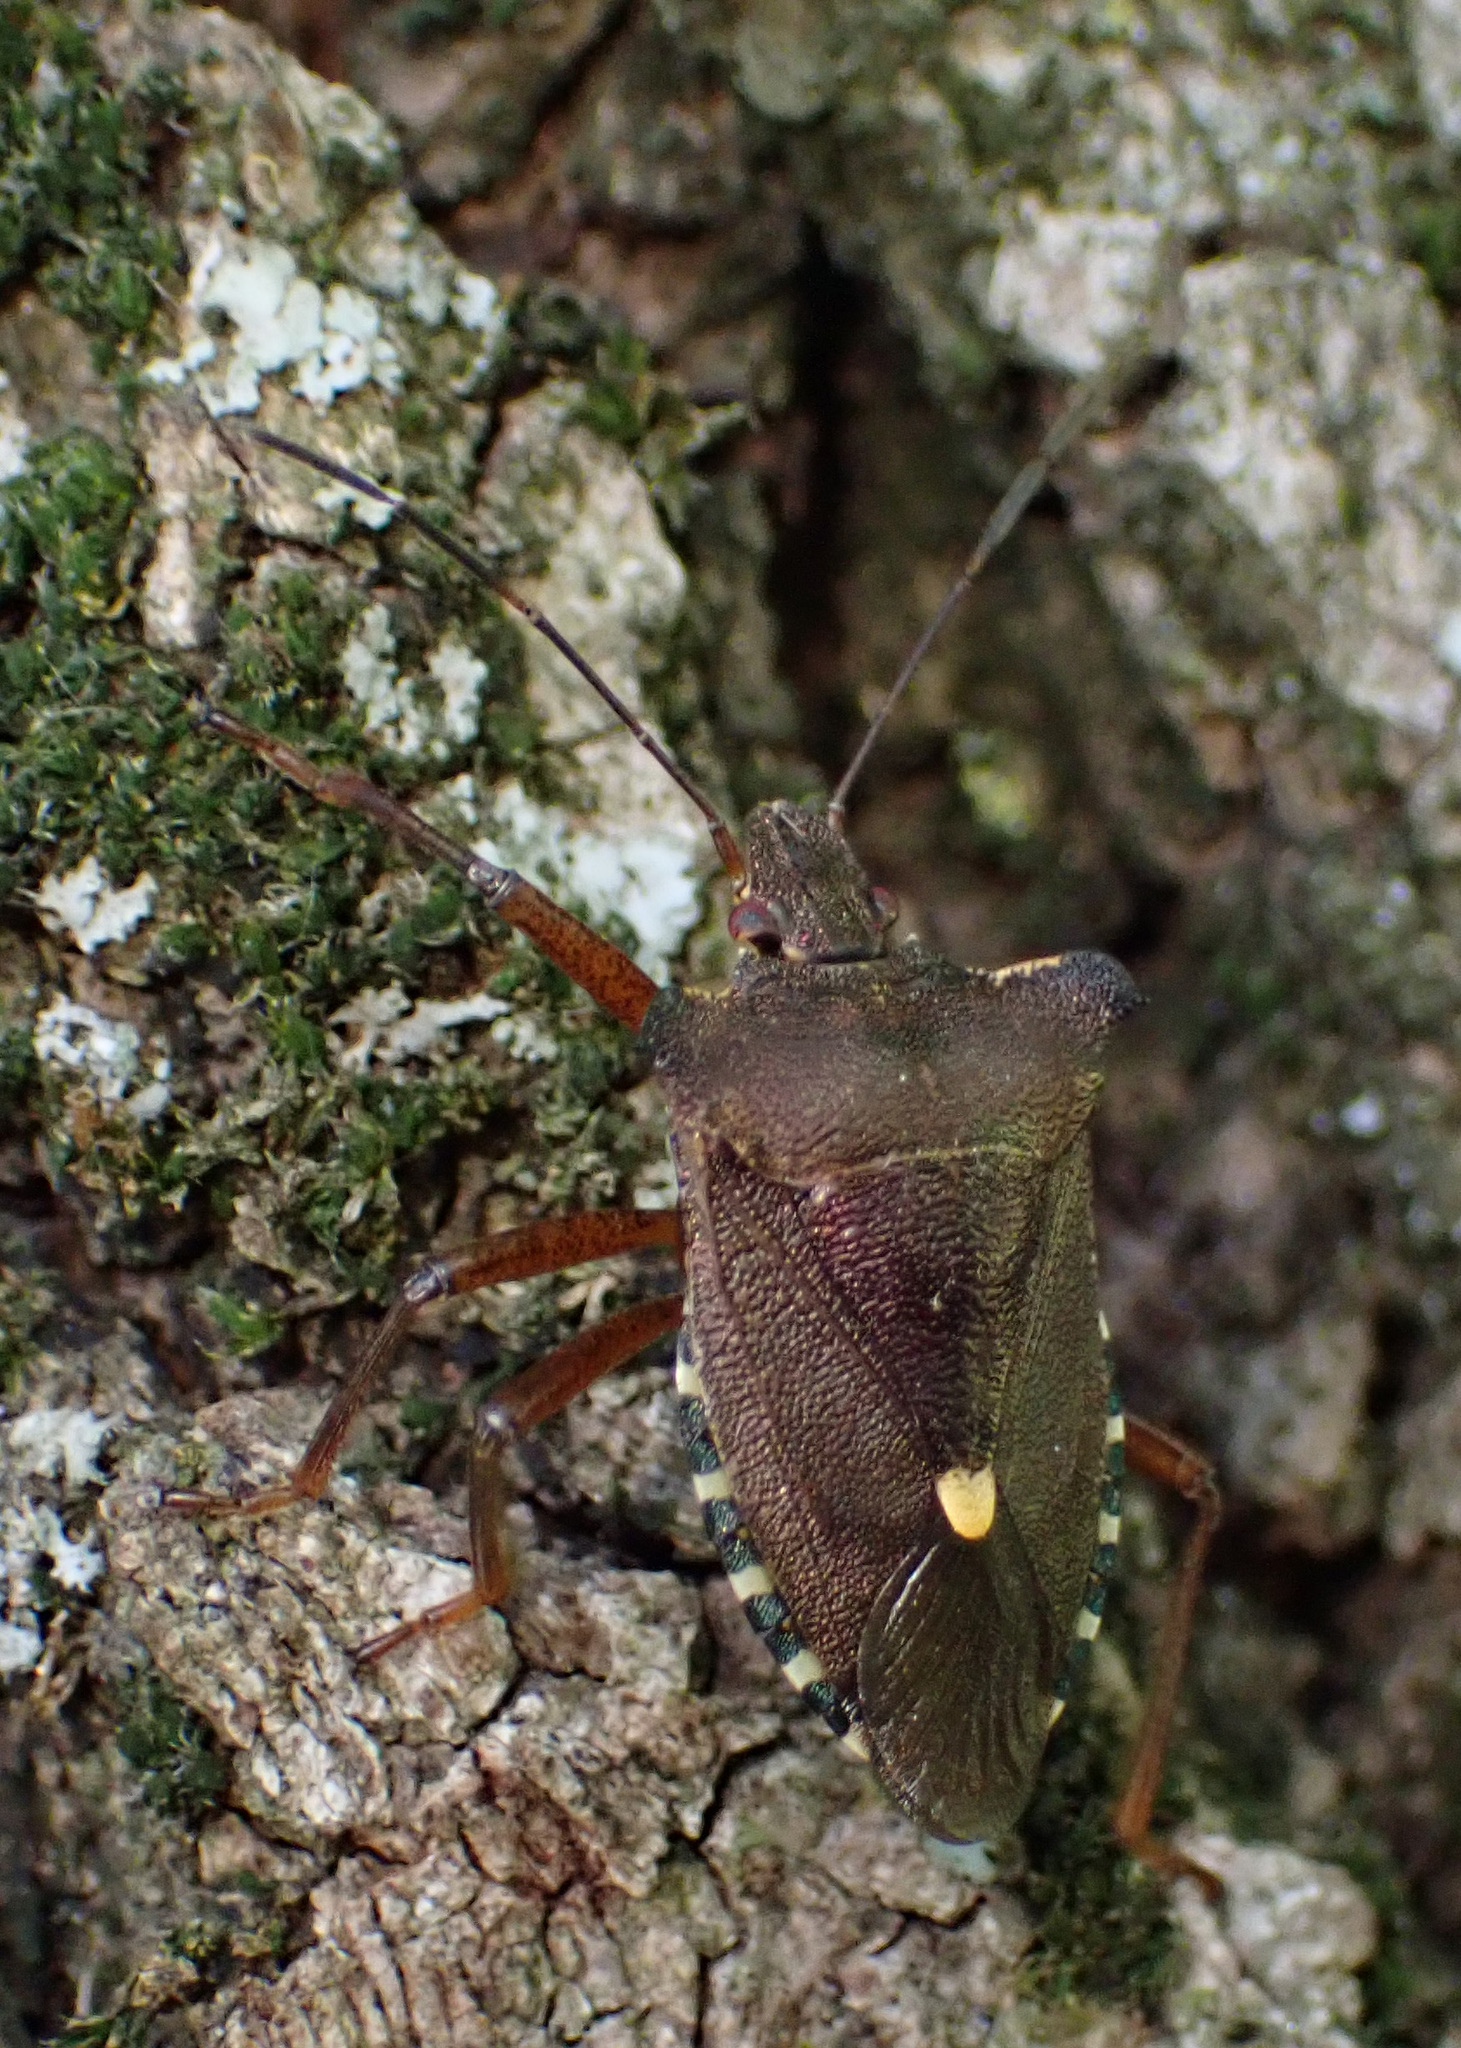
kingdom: Animalia
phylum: Arthropoda
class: Insecta
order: Hemiptera
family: Pentatomidae
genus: Pentatoma
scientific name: Pentatoma rufipes
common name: Forest bug
